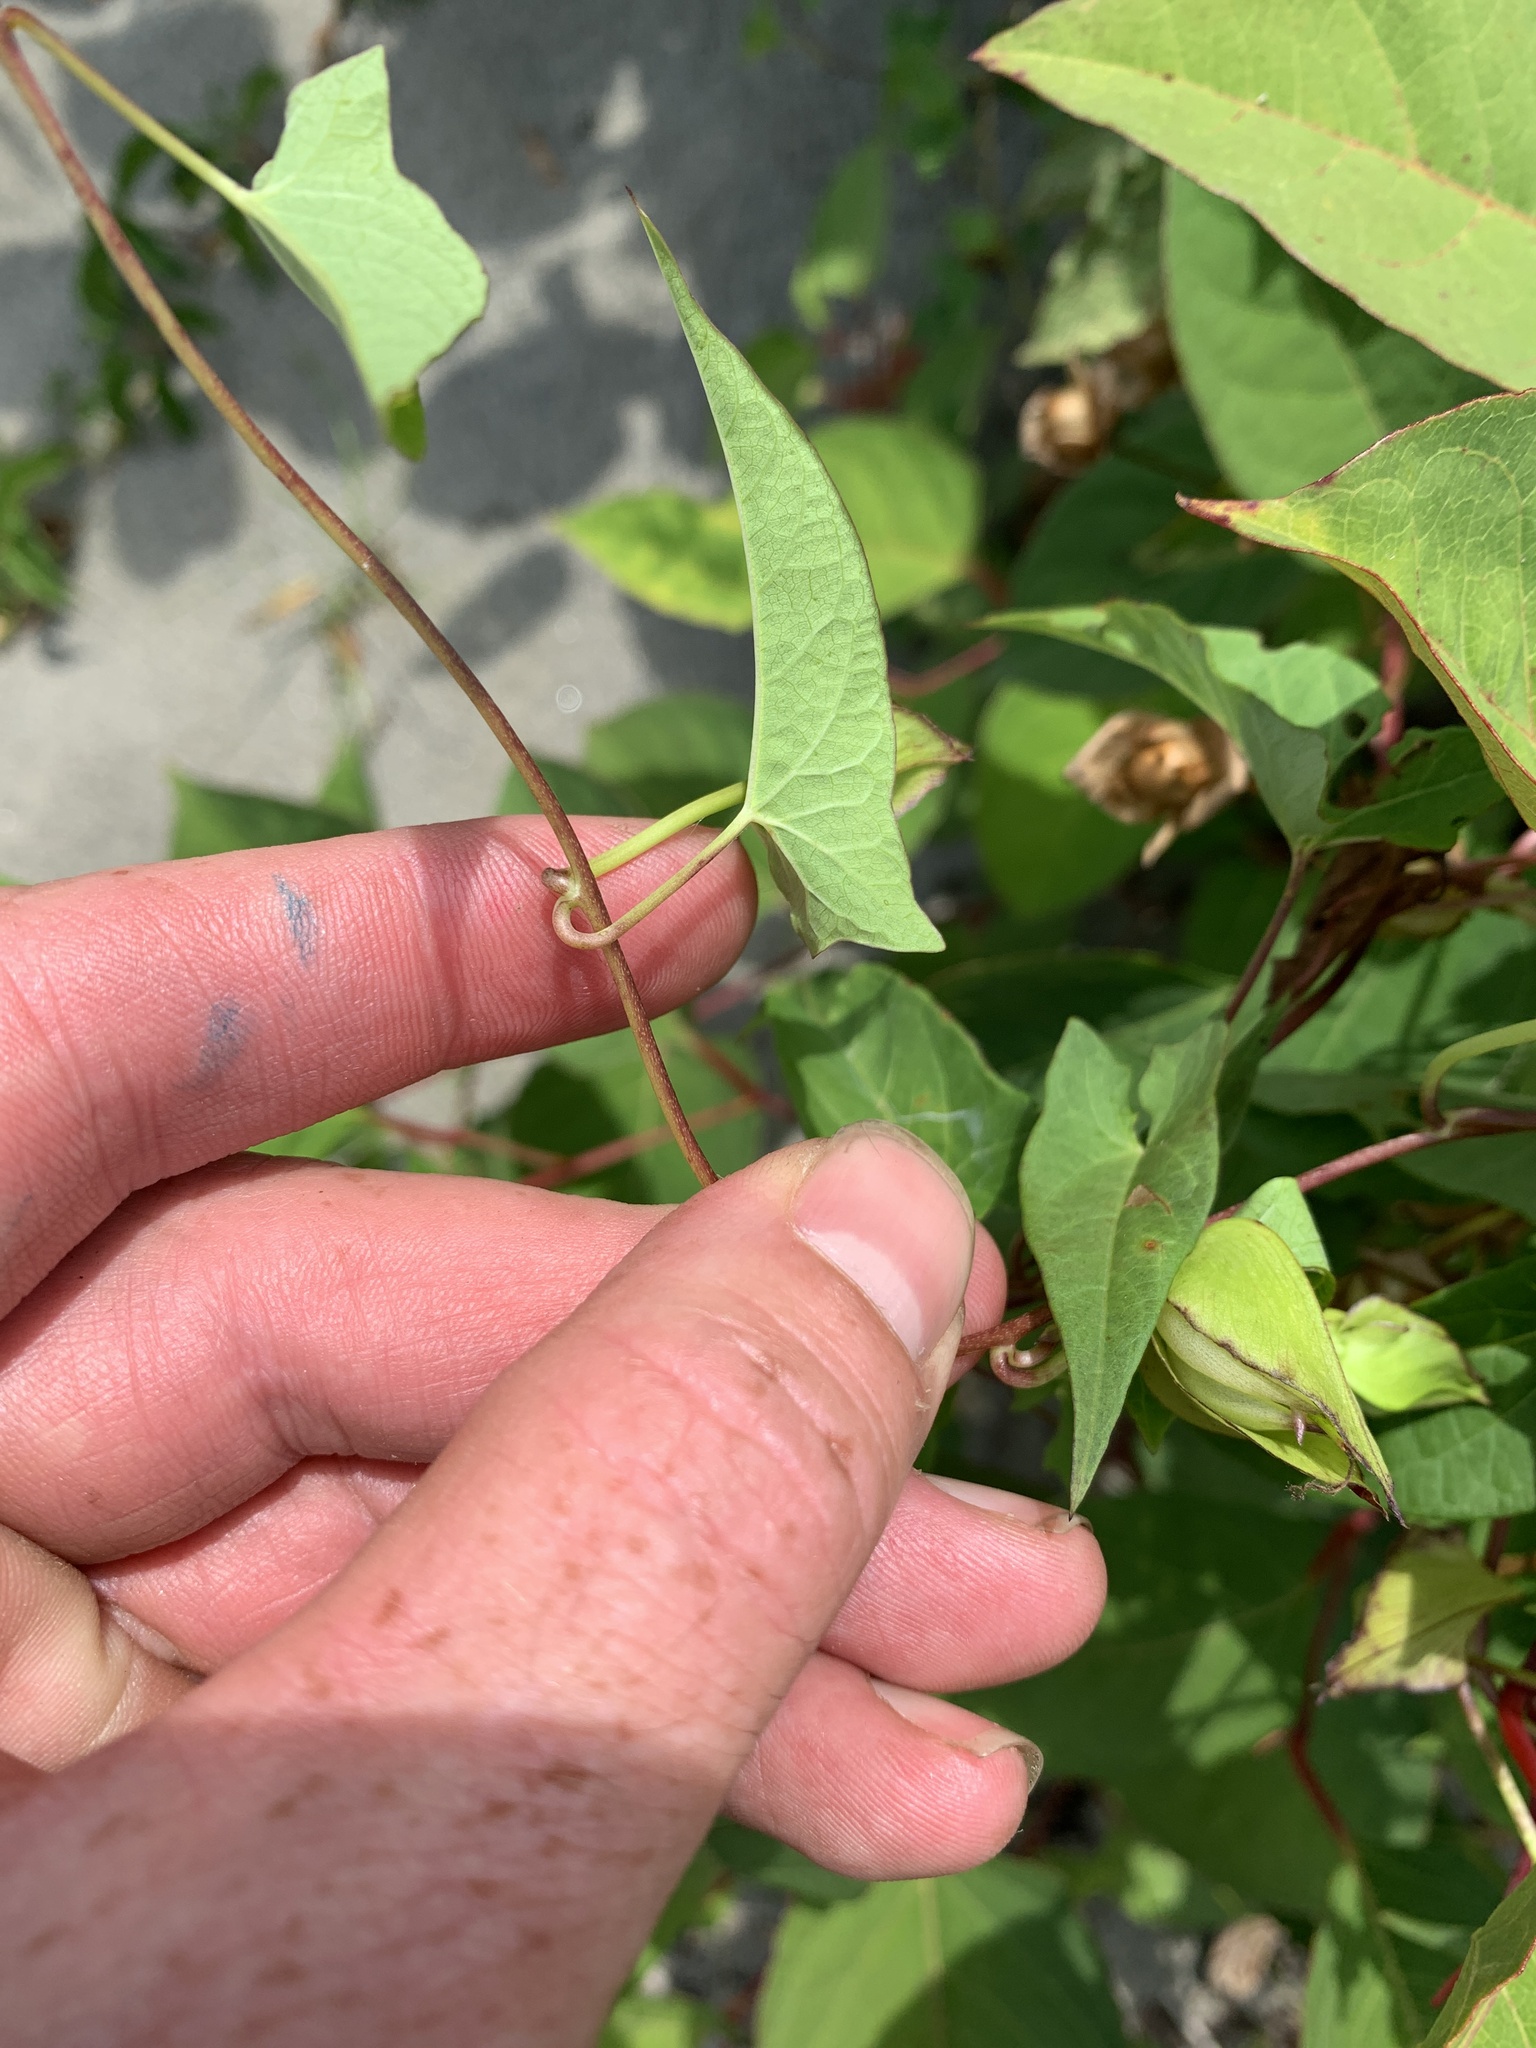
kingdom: Plantae
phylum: Tracheophyta
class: Magnoliopsida
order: Solanales
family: Convolvulaceae
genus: Calystegia
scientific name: Calystegia sepium
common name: Hedge bindweed
